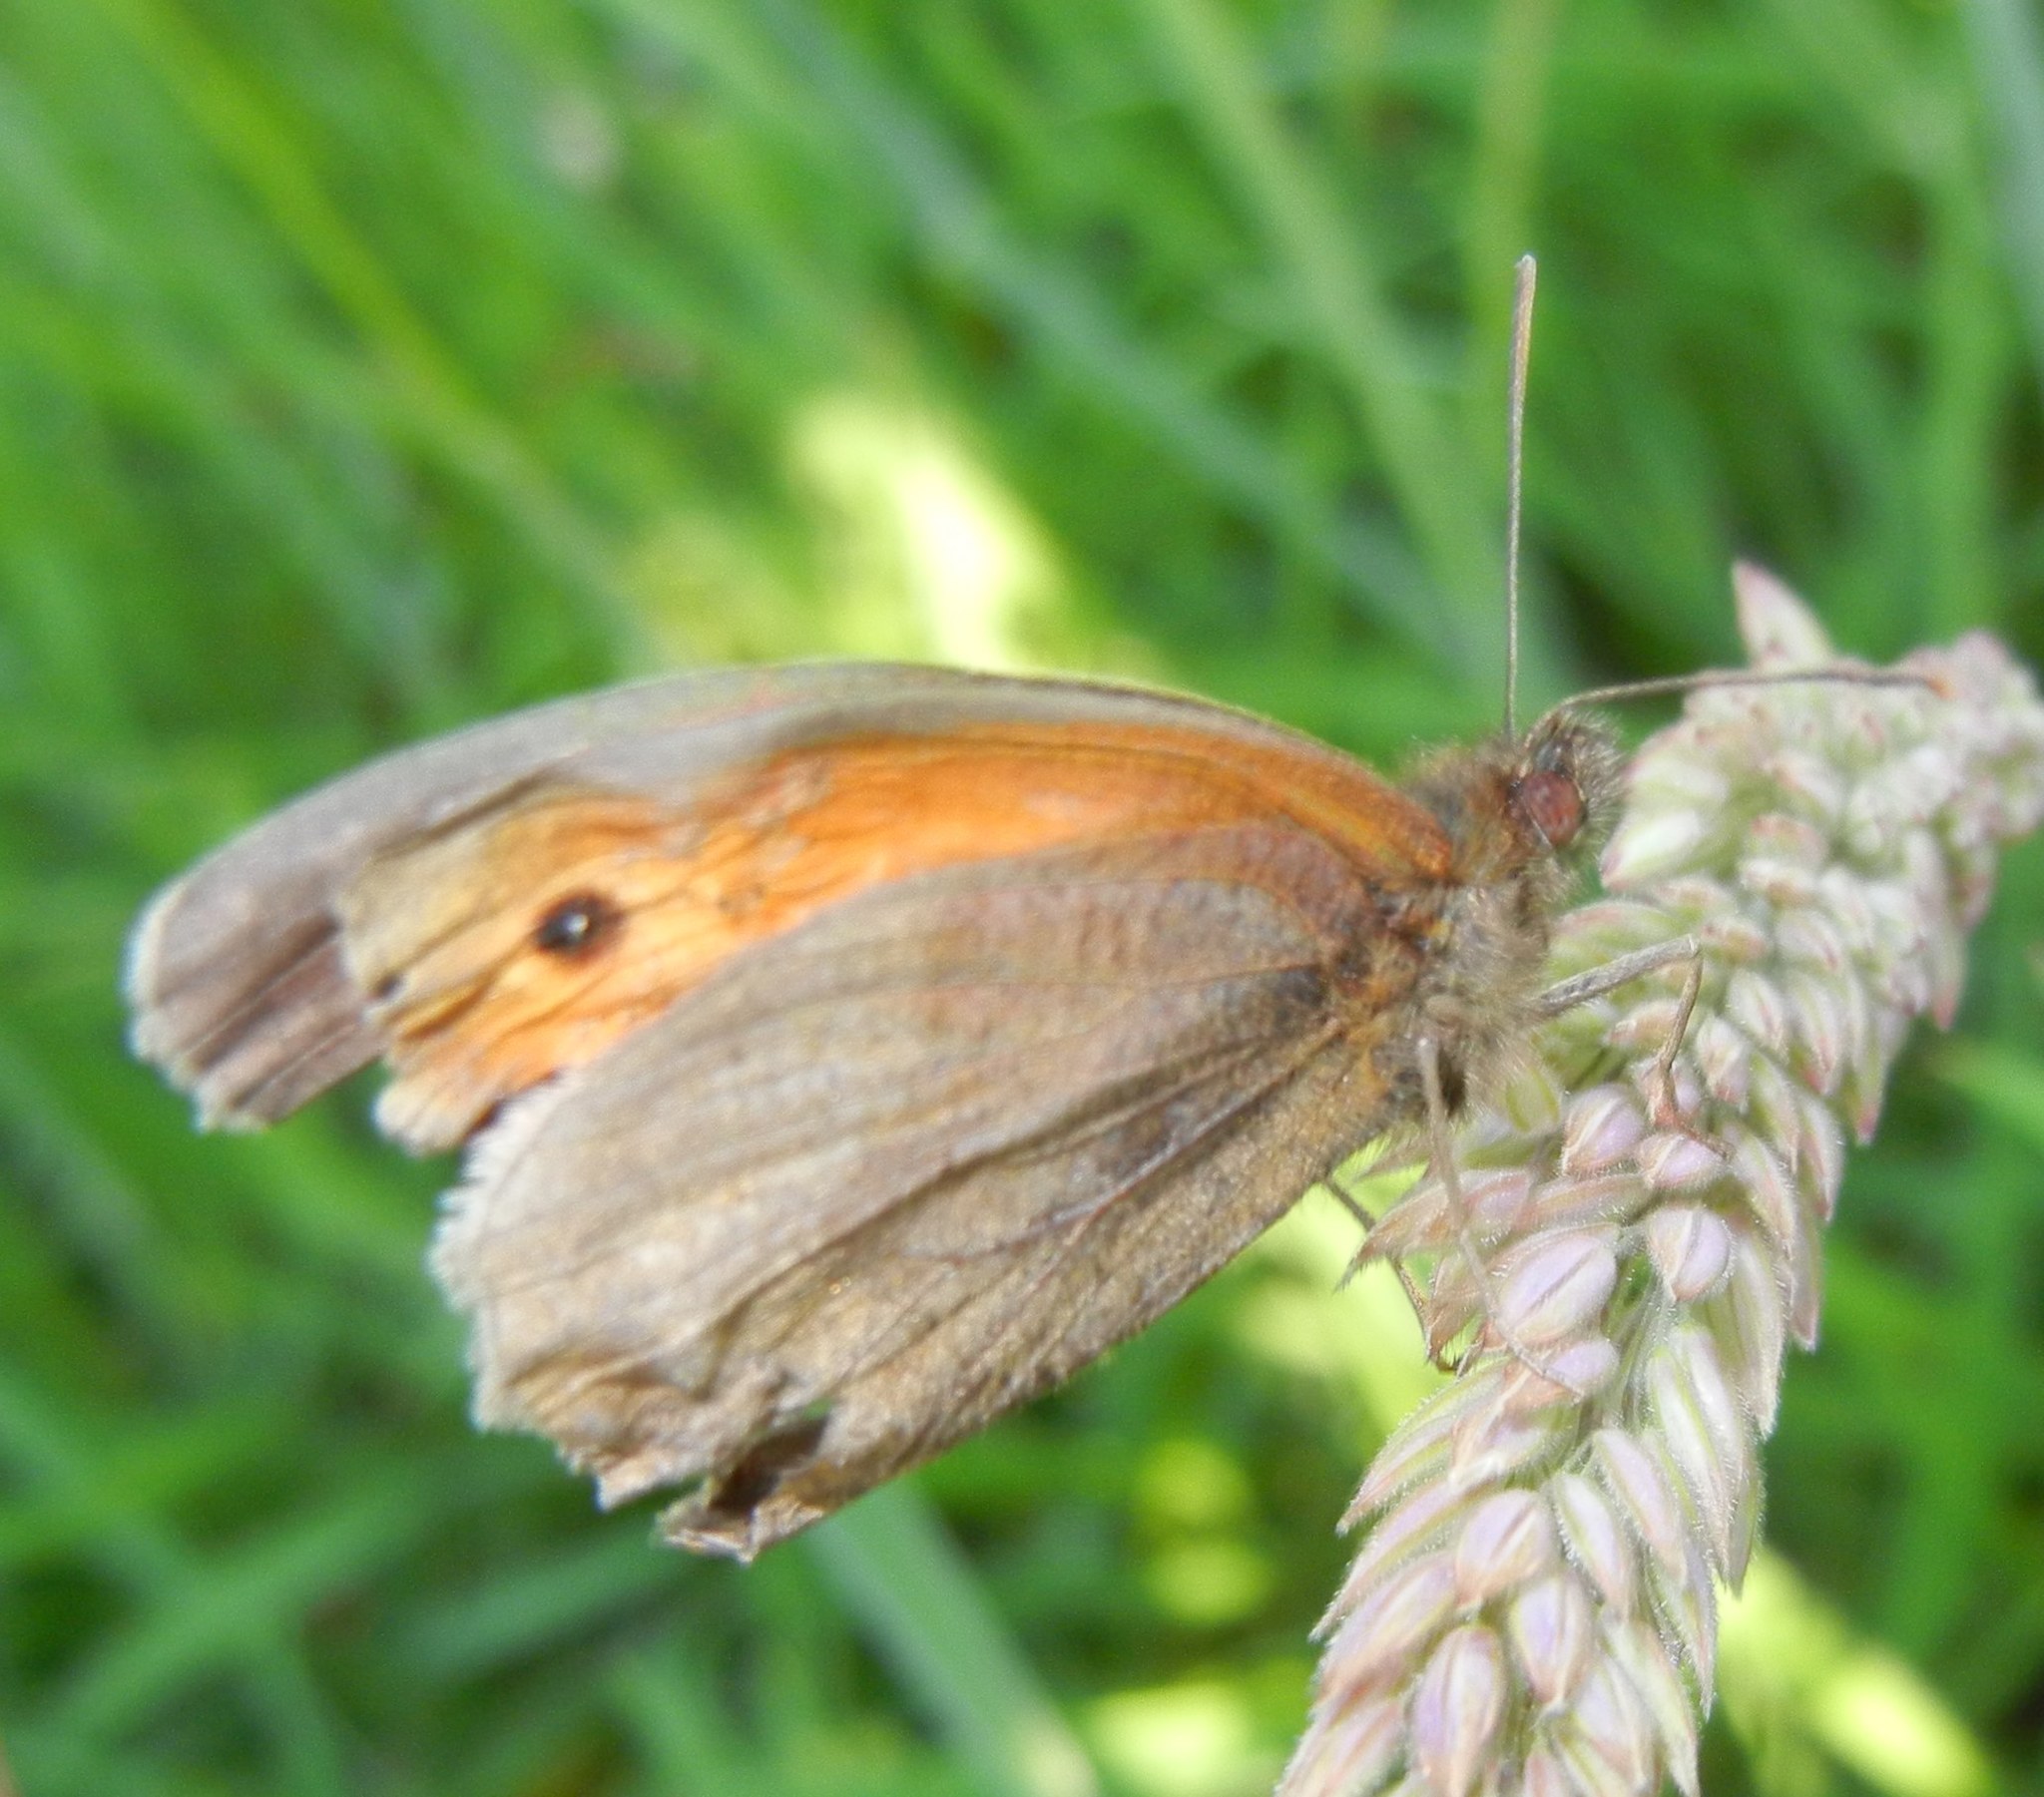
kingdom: Animalia
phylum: Arthropoda
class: Insecta
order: Lepidoptera
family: Nymphalidae
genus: Maniola
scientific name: Maniola jurtina
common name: Meadow brown
